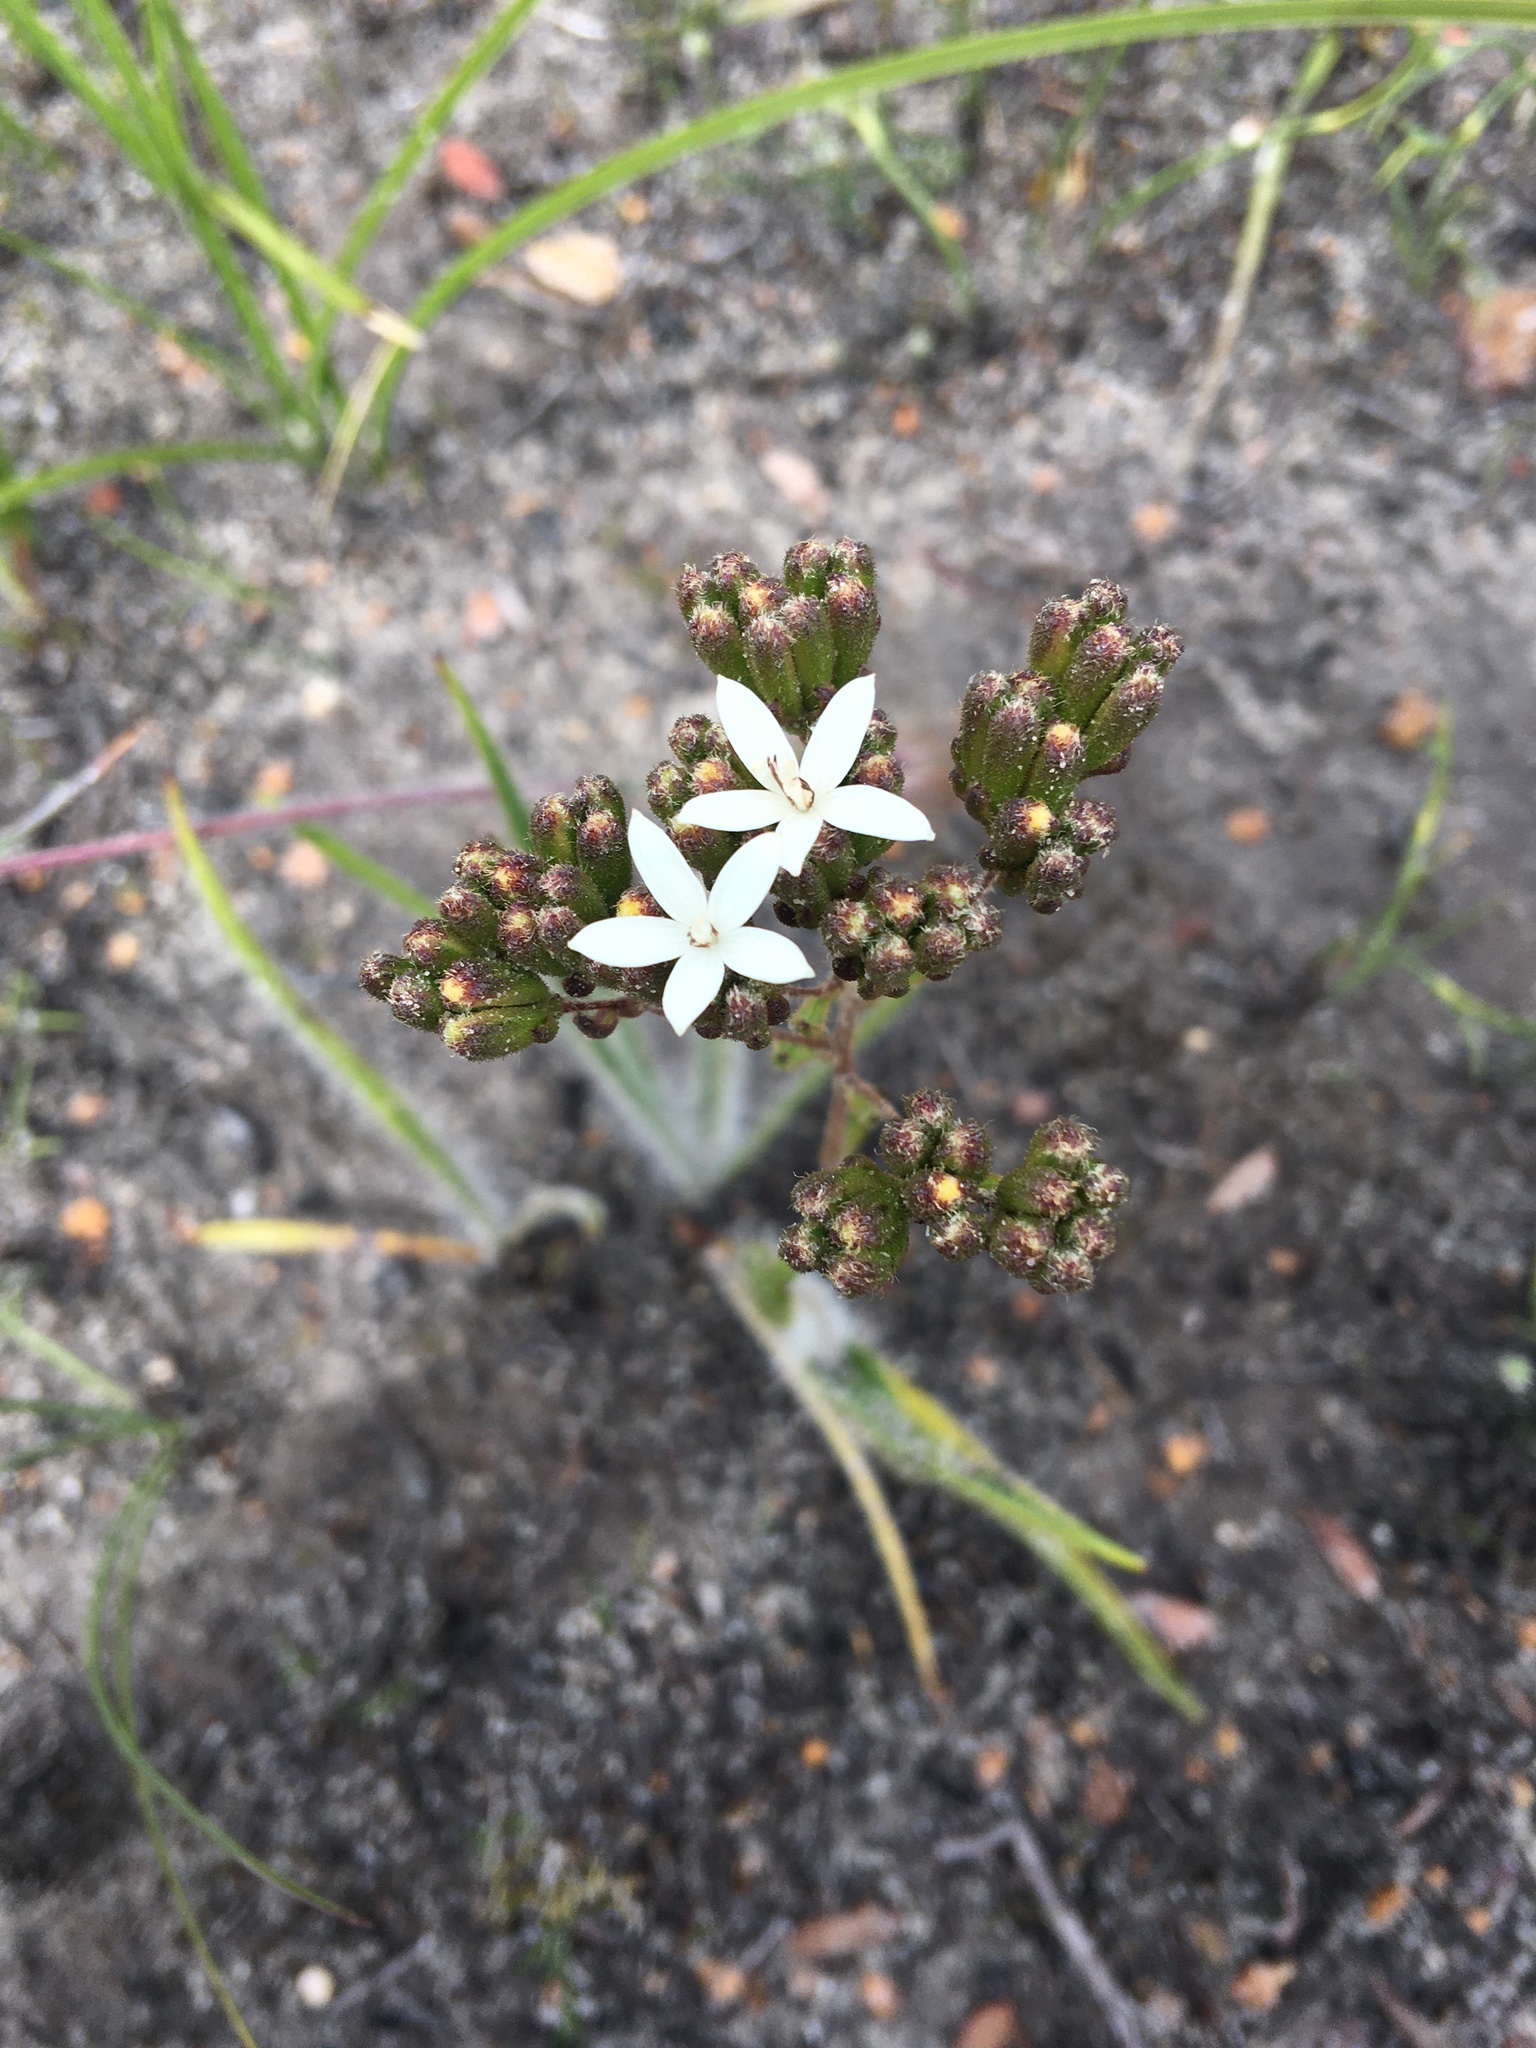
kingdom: Plantae
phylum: Tracheophyta
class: Magnoliopsida
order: Asterales
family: Asteraceae
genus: Corymbium
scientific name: Corymbium villosum
